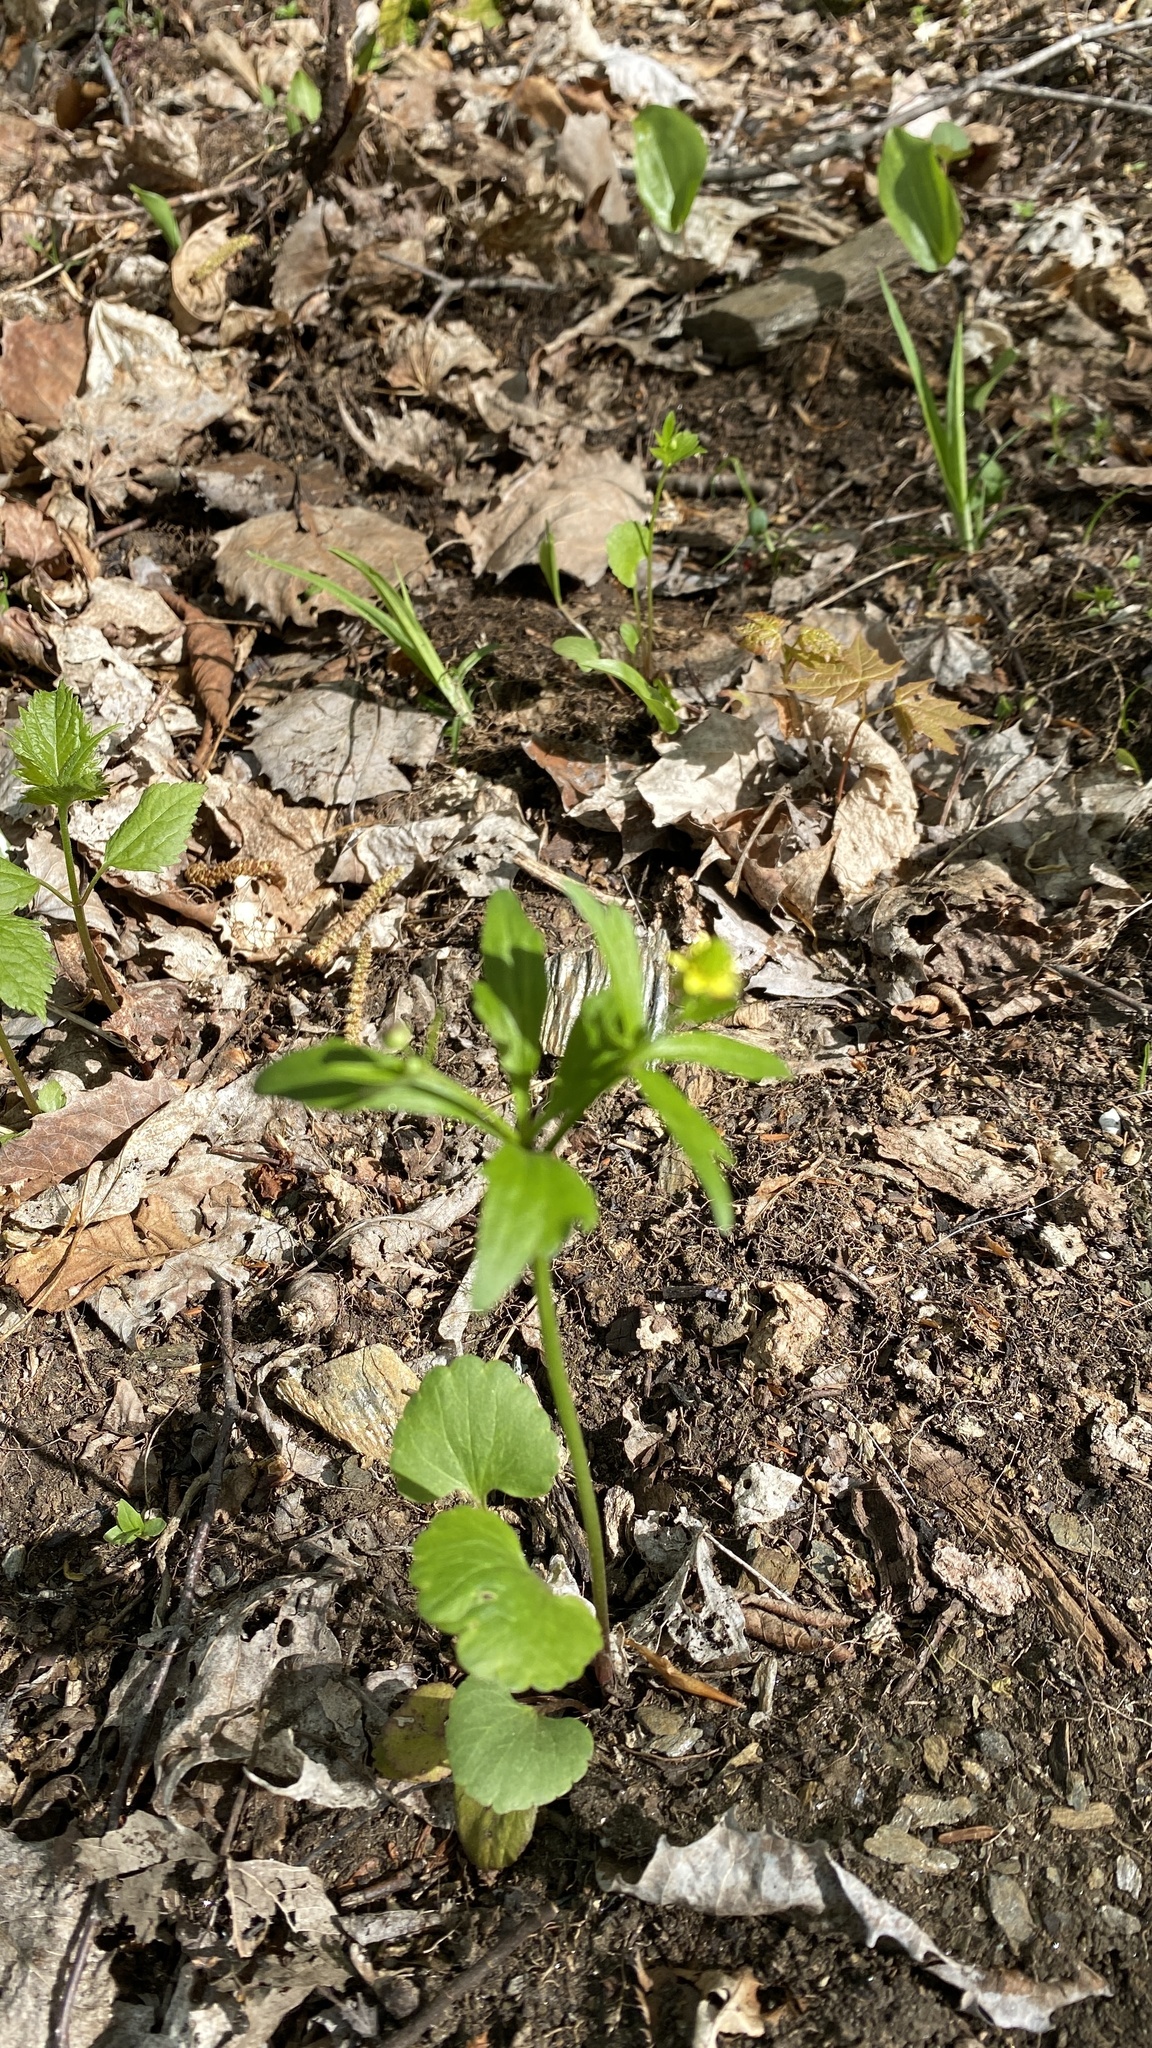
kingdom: Plantae
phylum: Tracheophyta
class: Magnoliopsida
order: Ranunculales
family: Ranunculaceae
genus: Ranunculus
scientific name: Ranunculus abortivus
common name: Early wood buttercup
